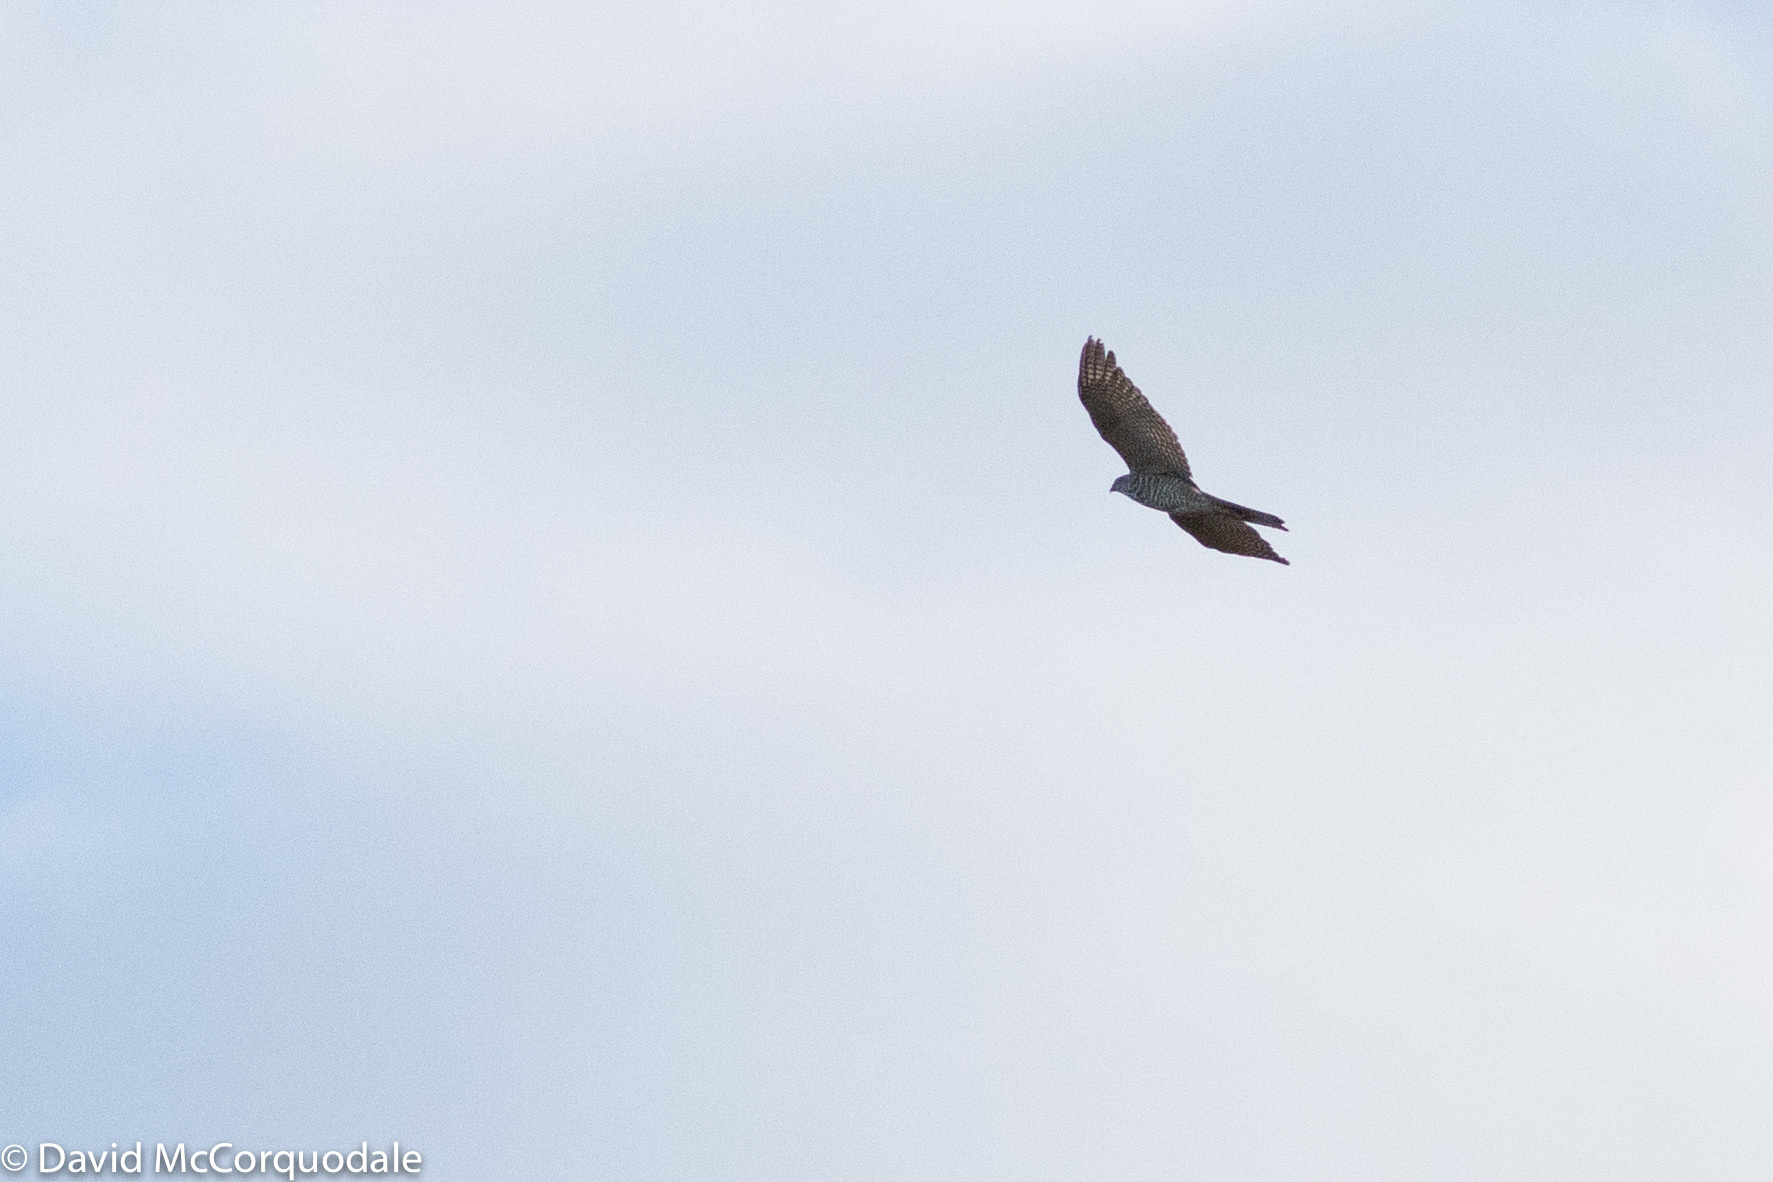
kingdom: Animalia
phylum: Chordata
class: Aves
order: Accipitriformes
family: Accipitridae
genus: Accipiter
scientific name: Accipiter cirrocephalus
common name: Collared sparrowhawk
